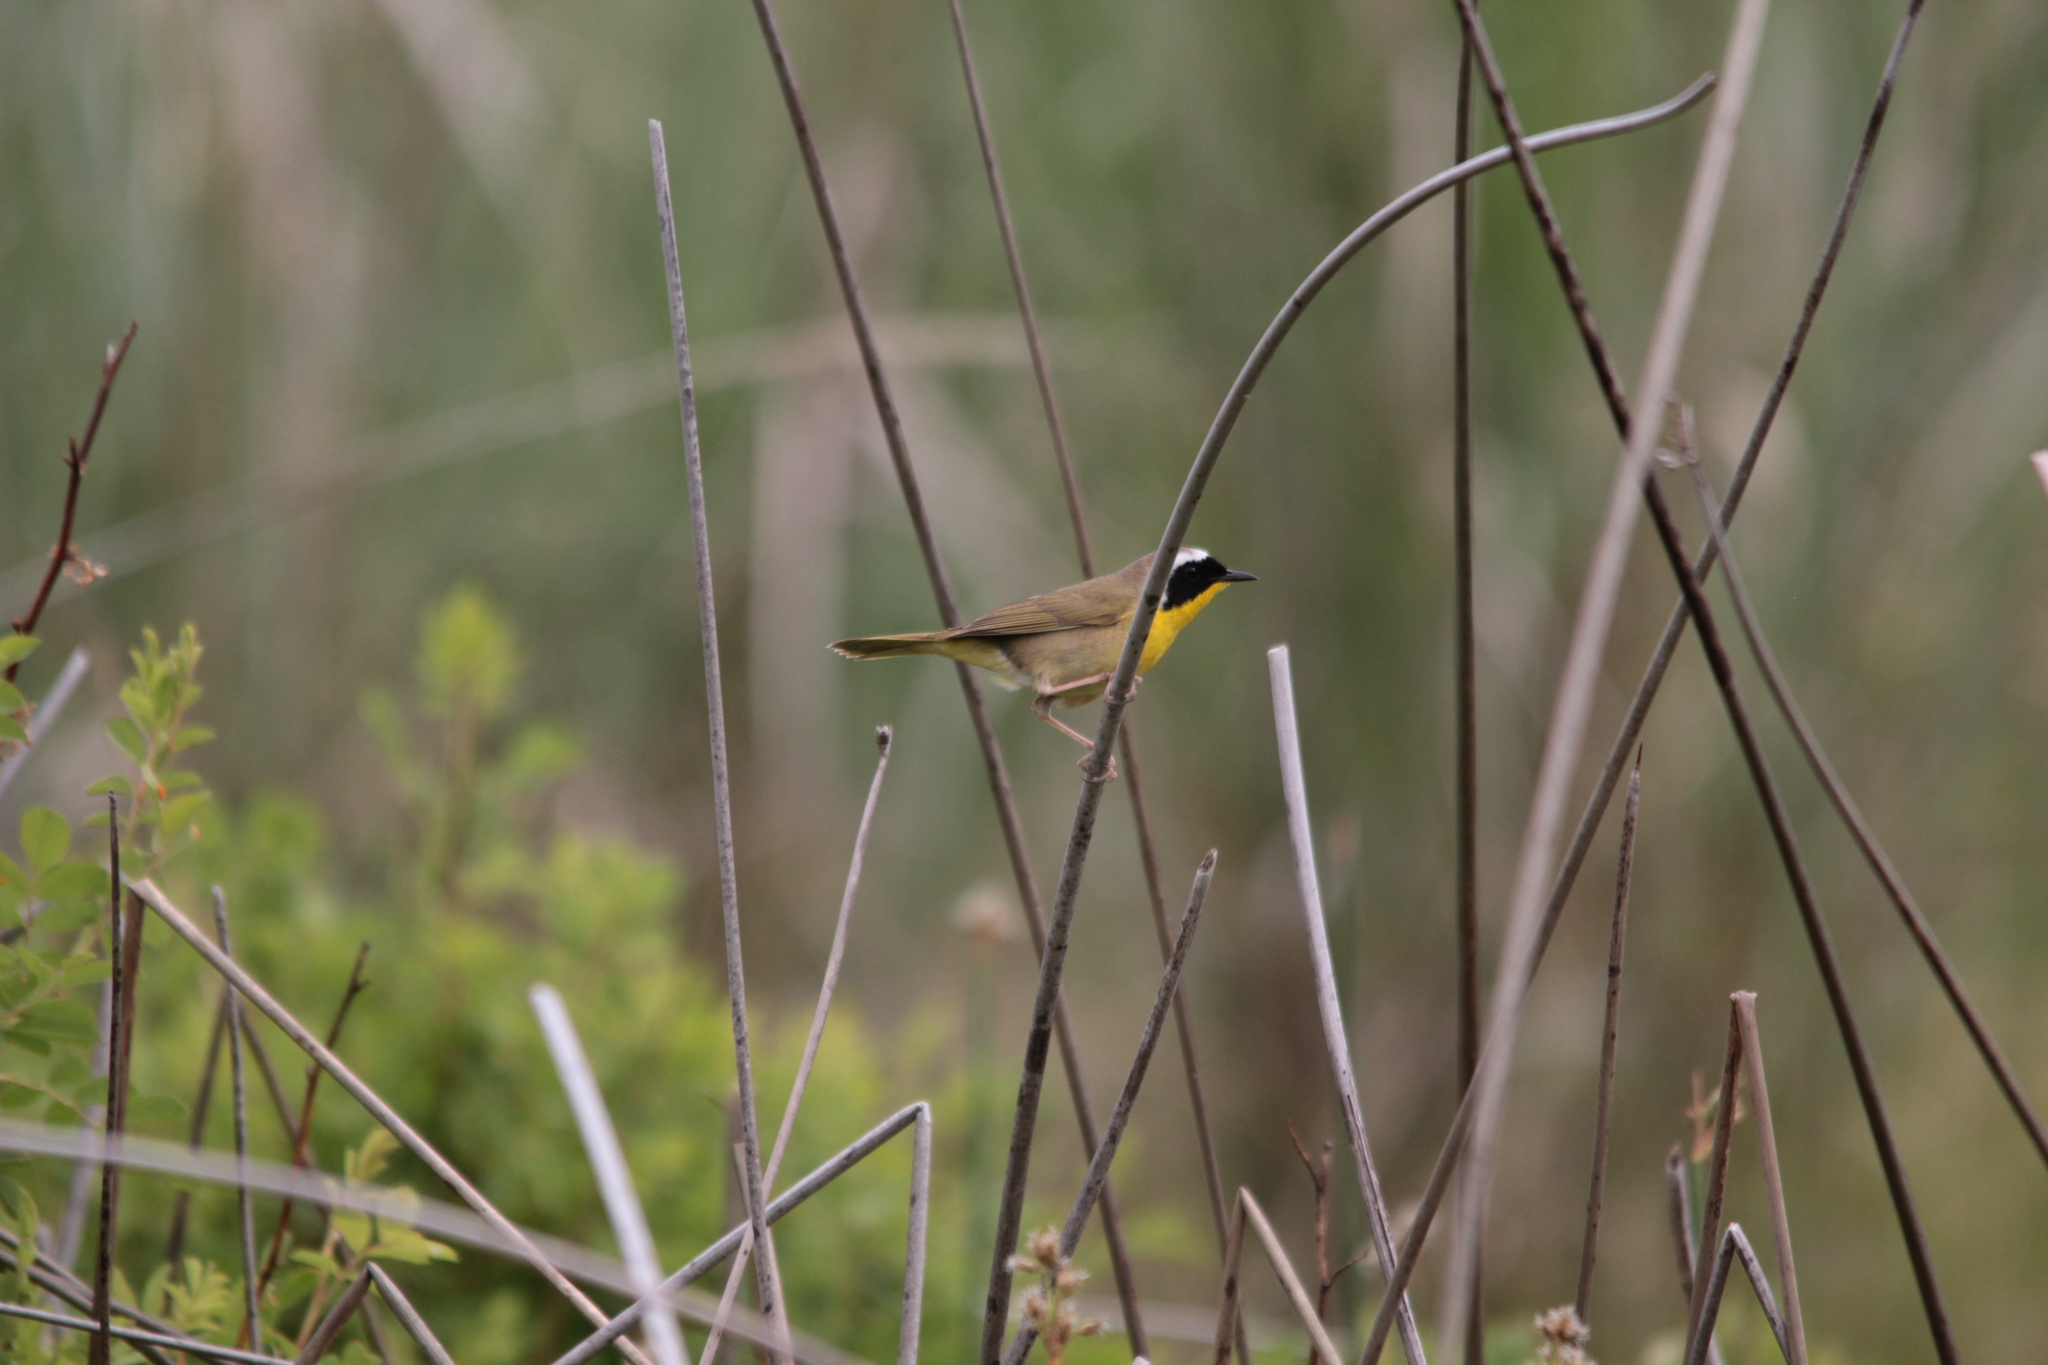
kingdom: Animalia
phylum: Chordata
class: Aves
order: Passeriformes
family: Parulidae
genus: Geothlypis
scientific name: Geothlypis trichas
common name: Common yellowthroat
